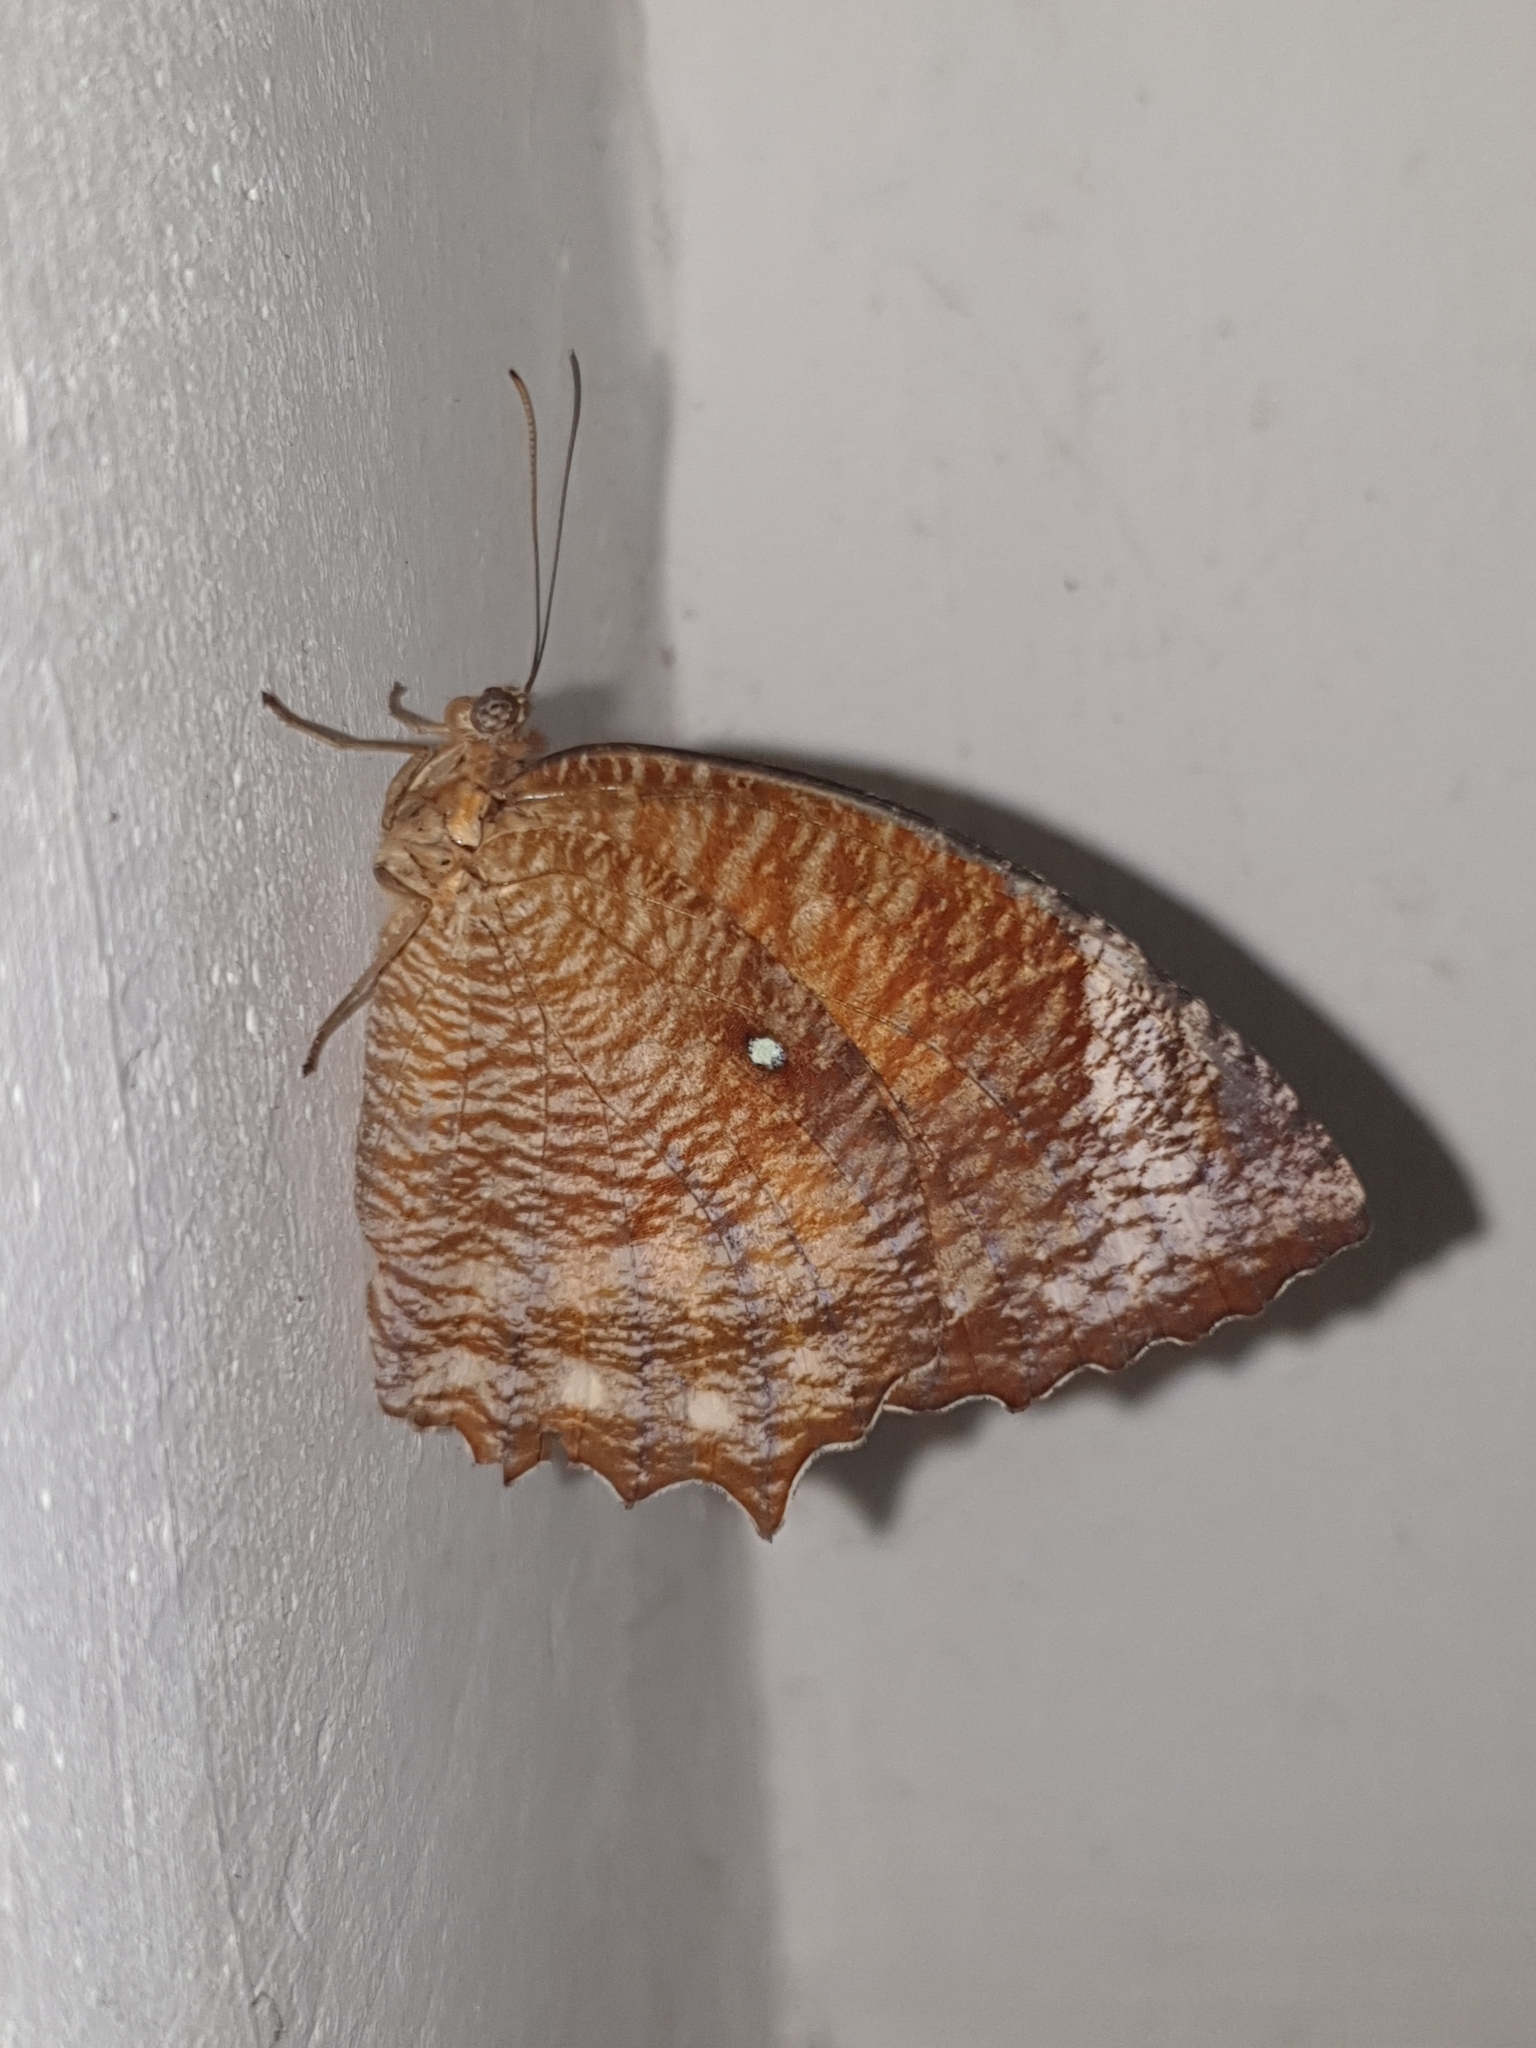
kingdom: Animalia
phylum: Arthropoda
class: Insecta
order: Lepidoptera
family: Nymphalidae
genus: Elymnias
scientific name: Elymnias hypermnestra
